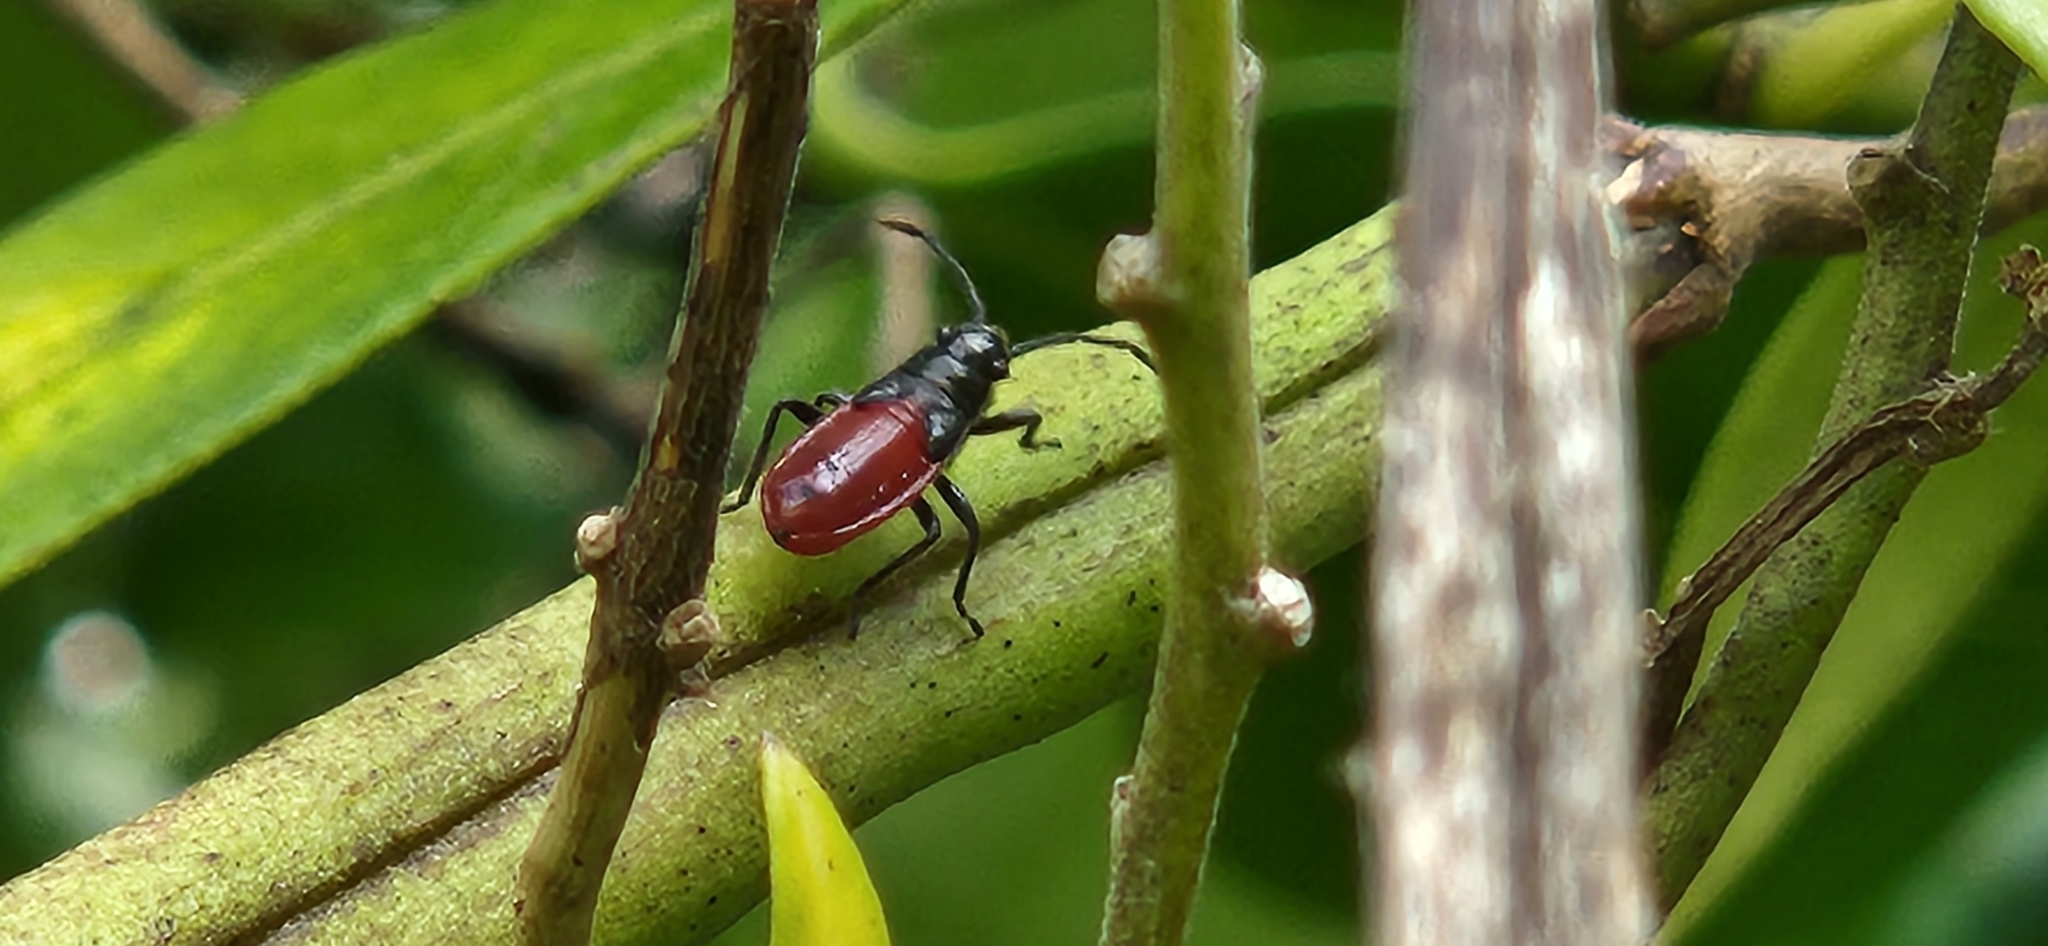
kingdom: Animalia
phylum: Arthropoda
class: Insecta
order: Hemiptera
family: Lygaeidae
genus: Arocatus
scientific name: Arocatus rusticus
